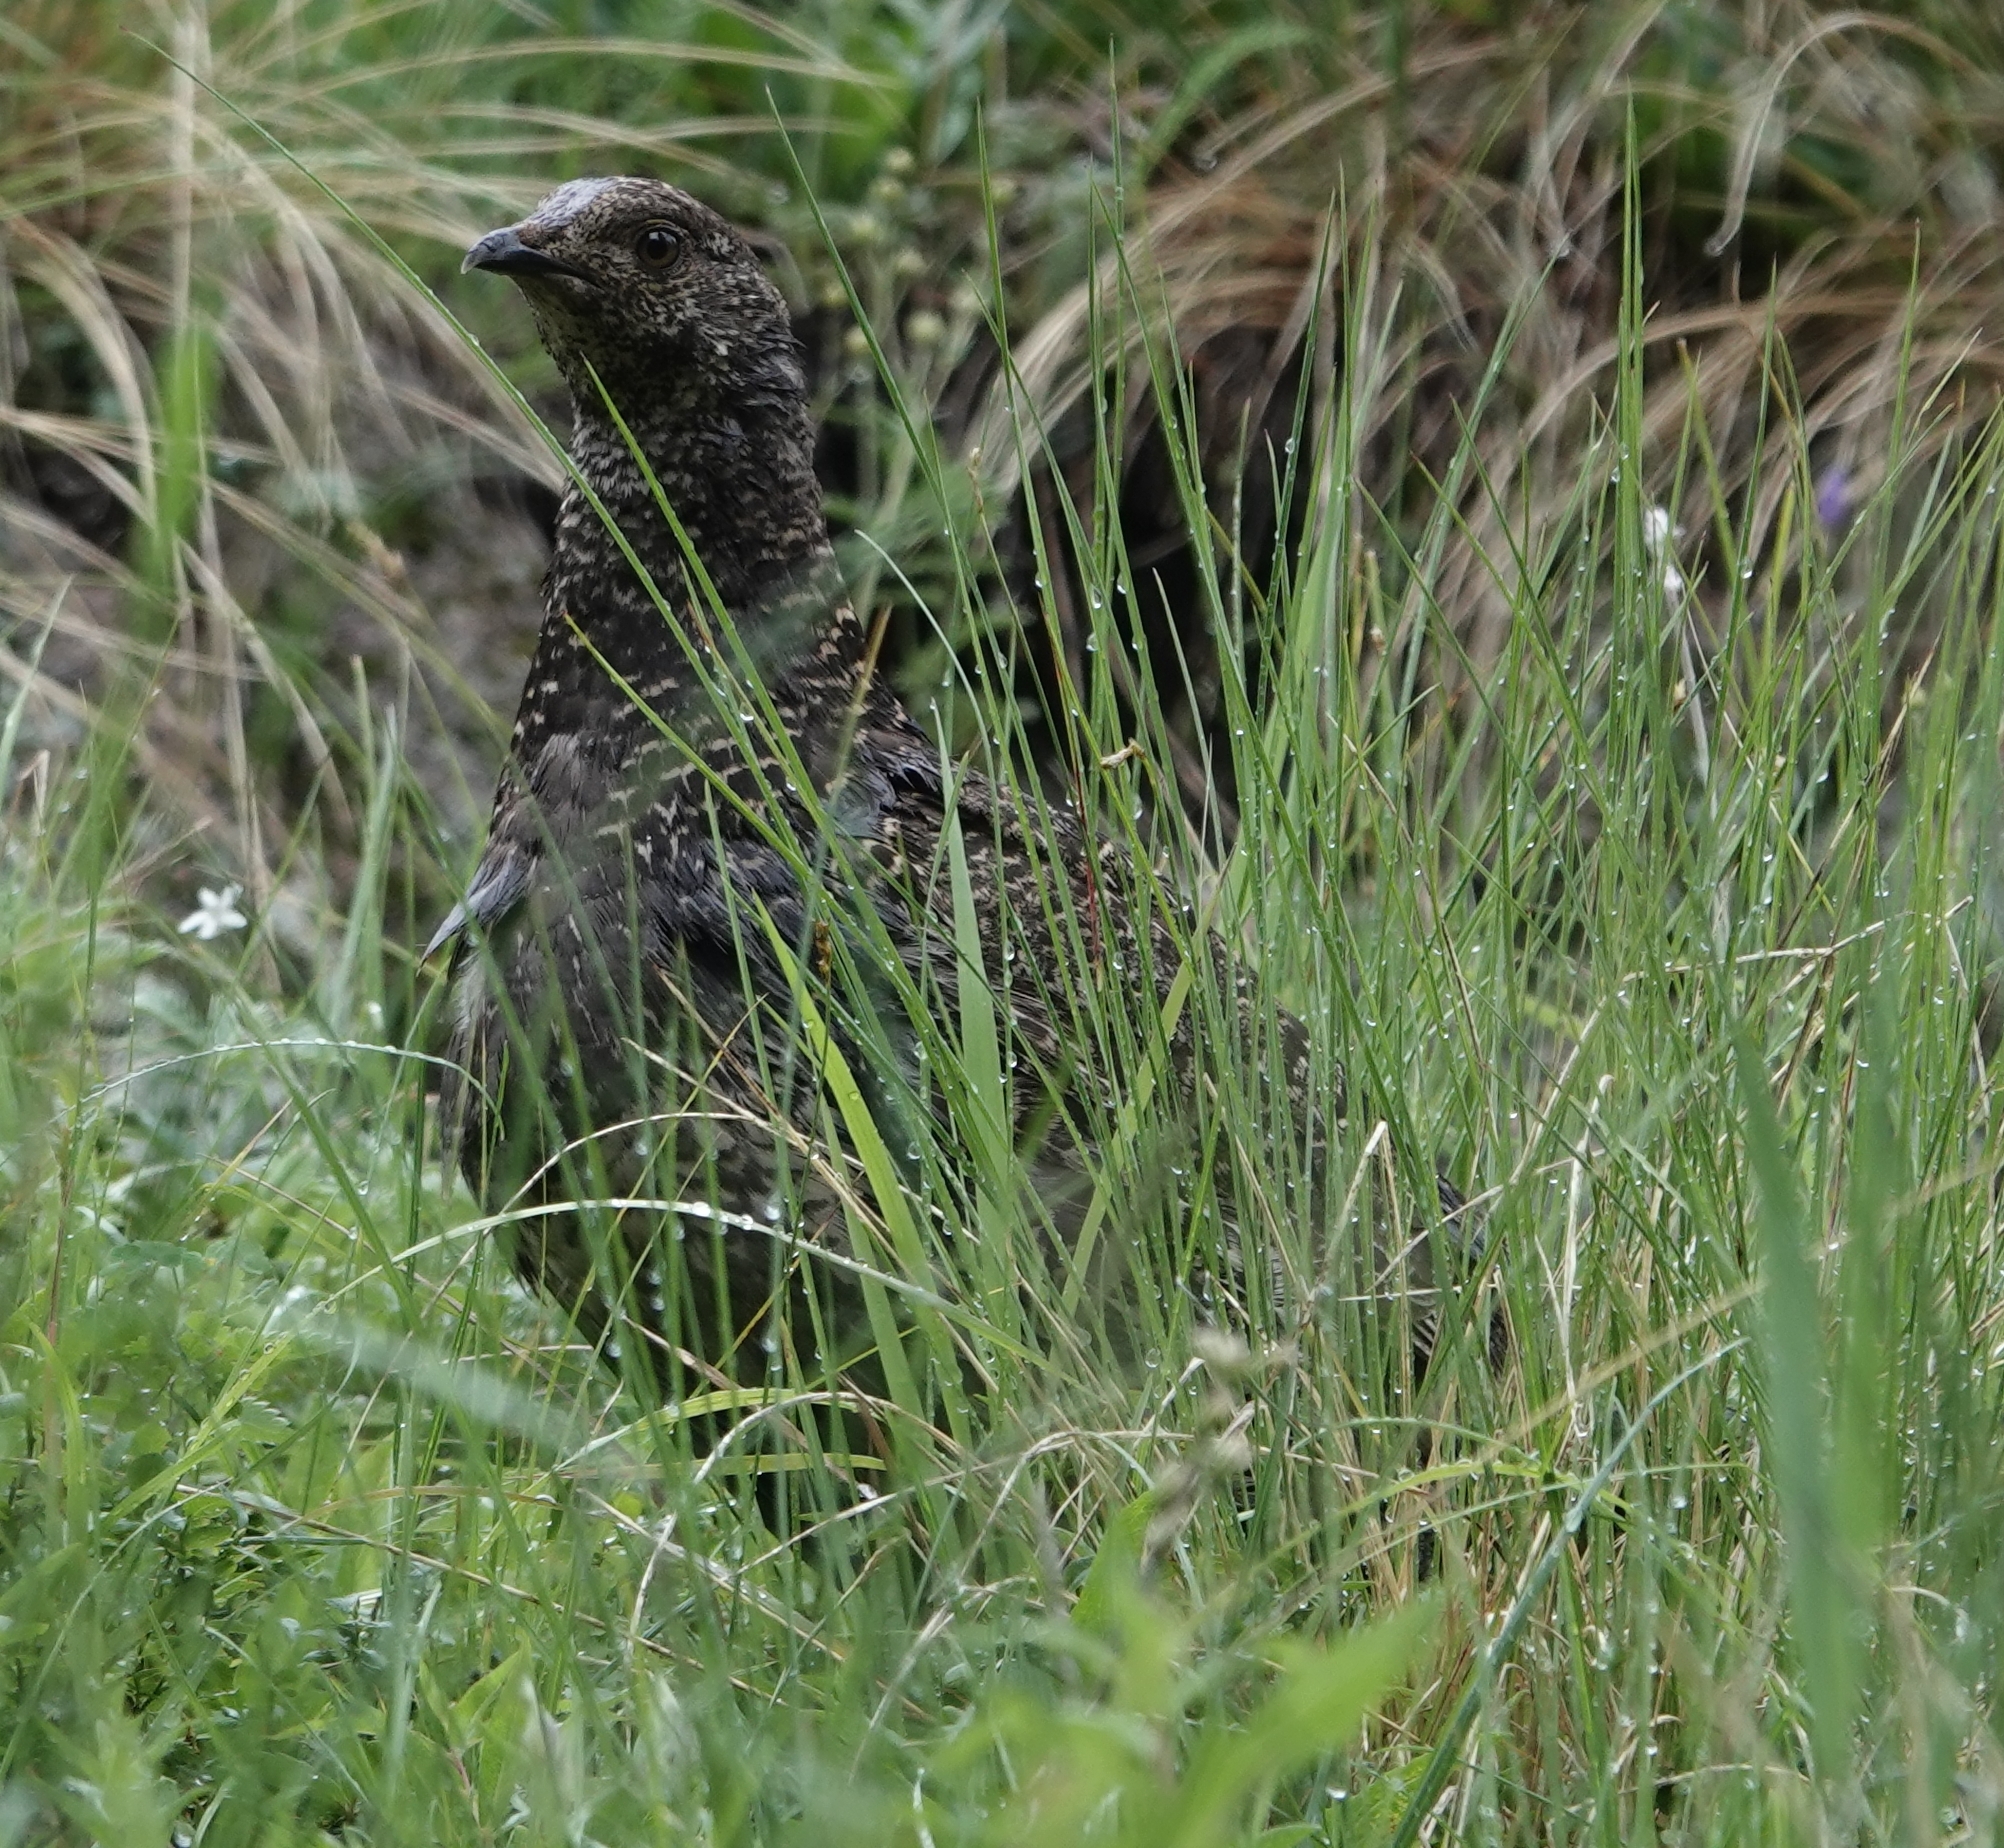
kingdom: Animalia
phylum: Chordata
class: Aves
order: Galliformes
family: Phasianidae
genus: Dendragapus
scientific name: Dendragapus obscurus
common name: Dusky grouse
